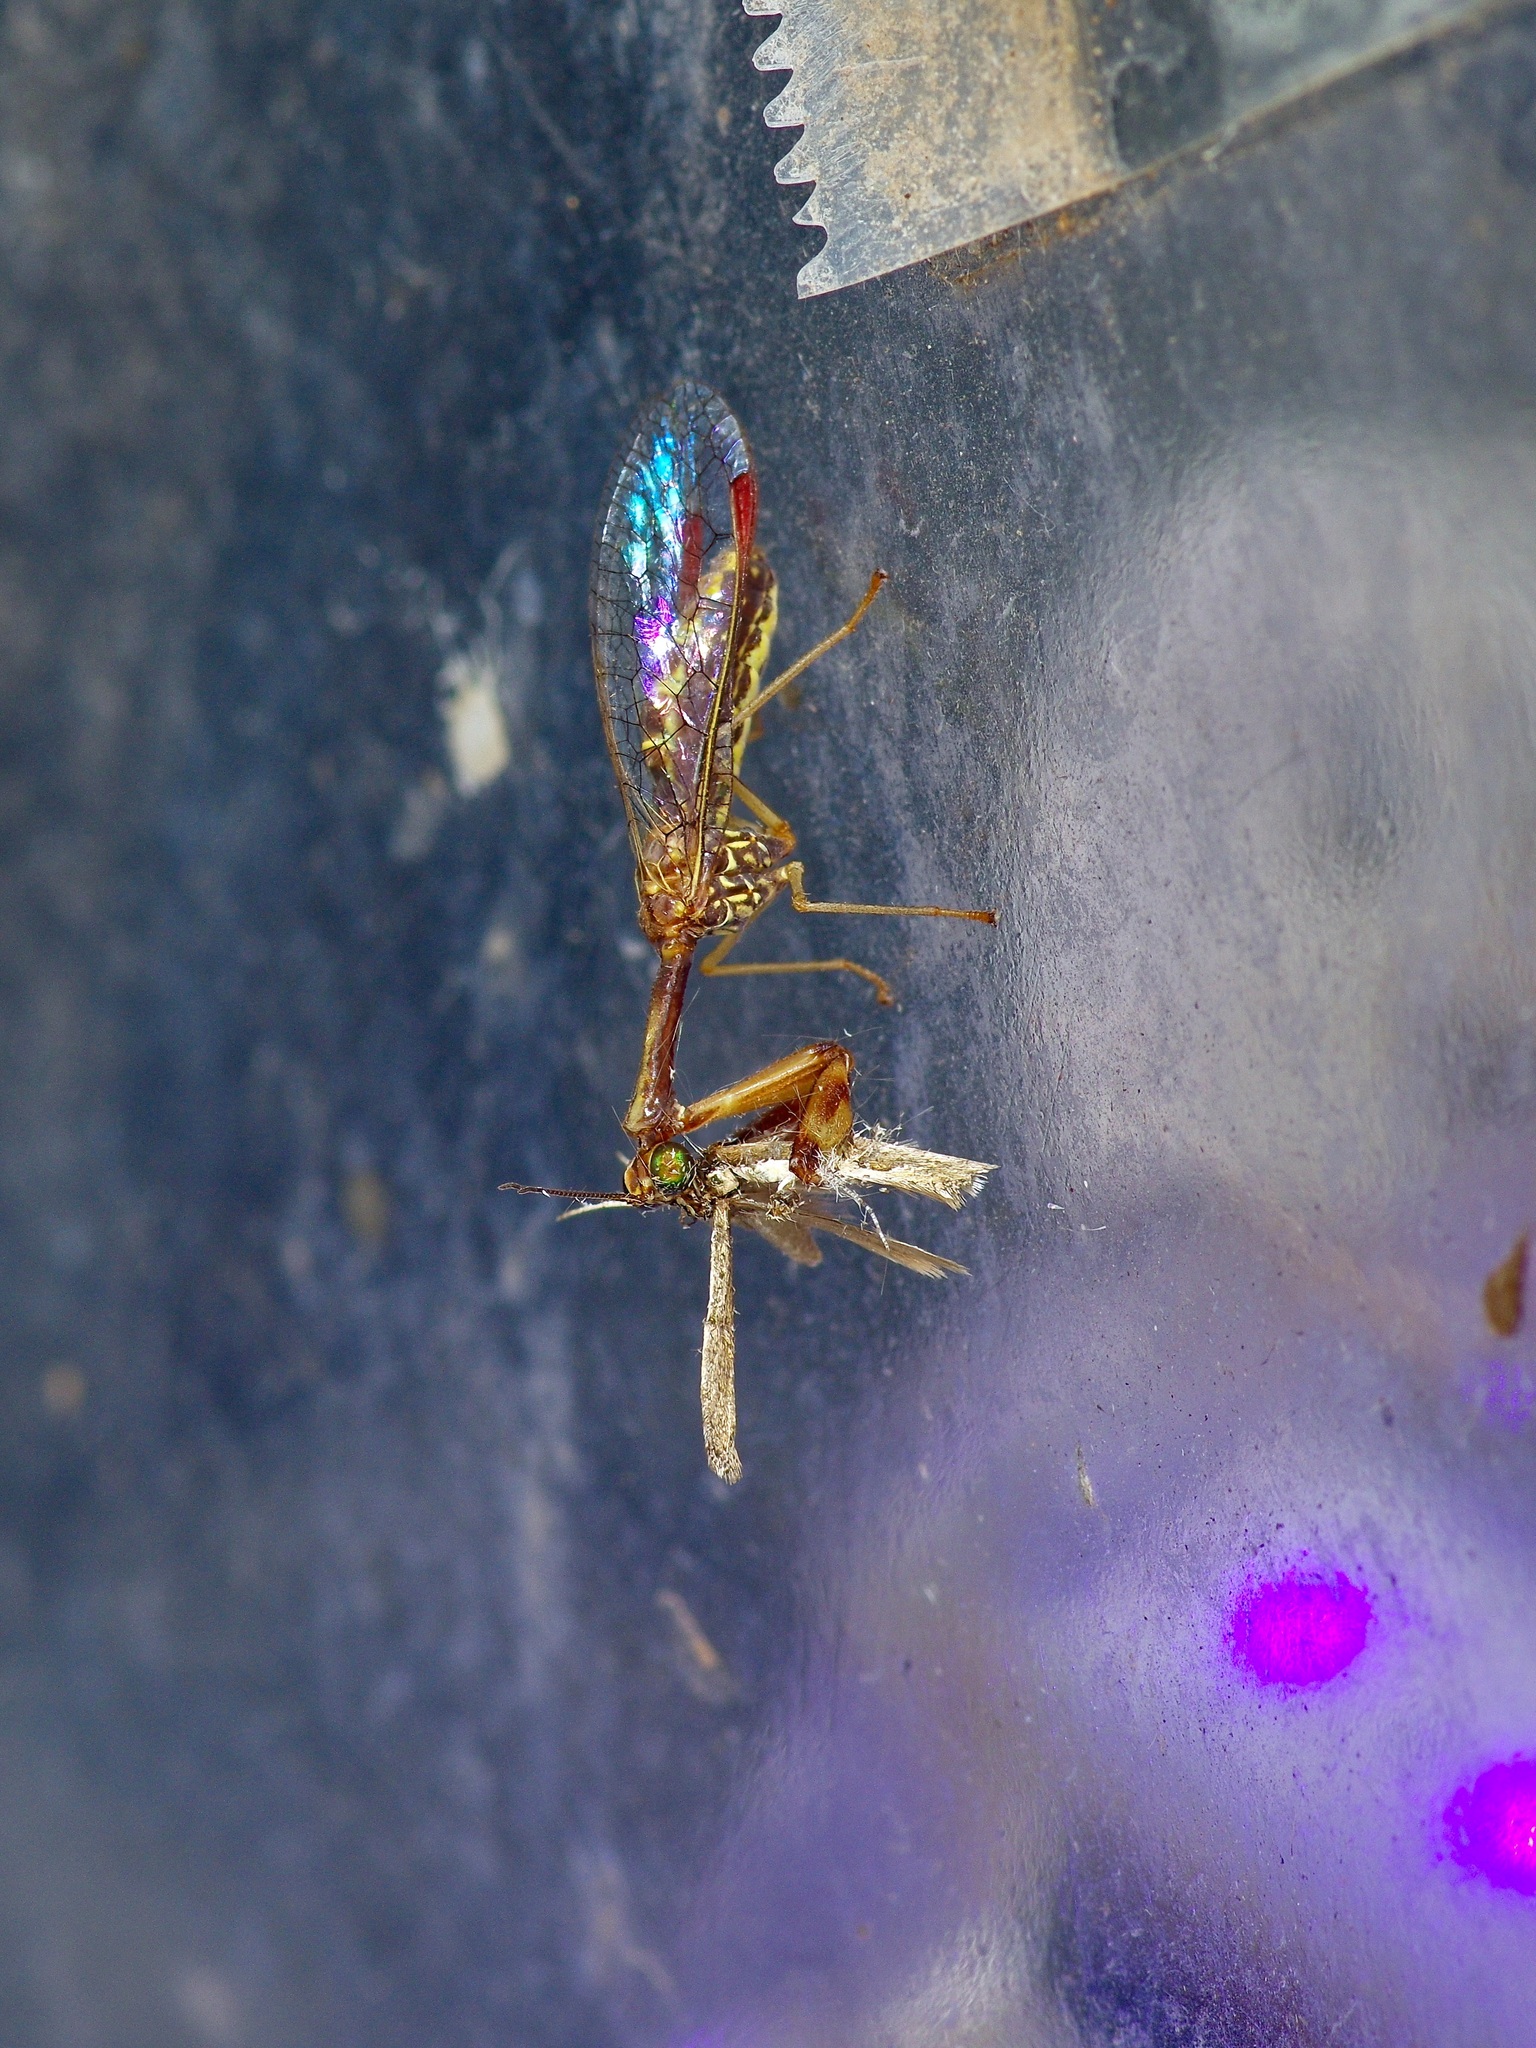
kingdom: Animalia
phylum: Arthropoda
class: Insecta
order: Neuroptera
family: Mantispidae
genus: Leptomantispa
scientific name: Leptomantispa pulchella
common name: Stevens's mantidfly
